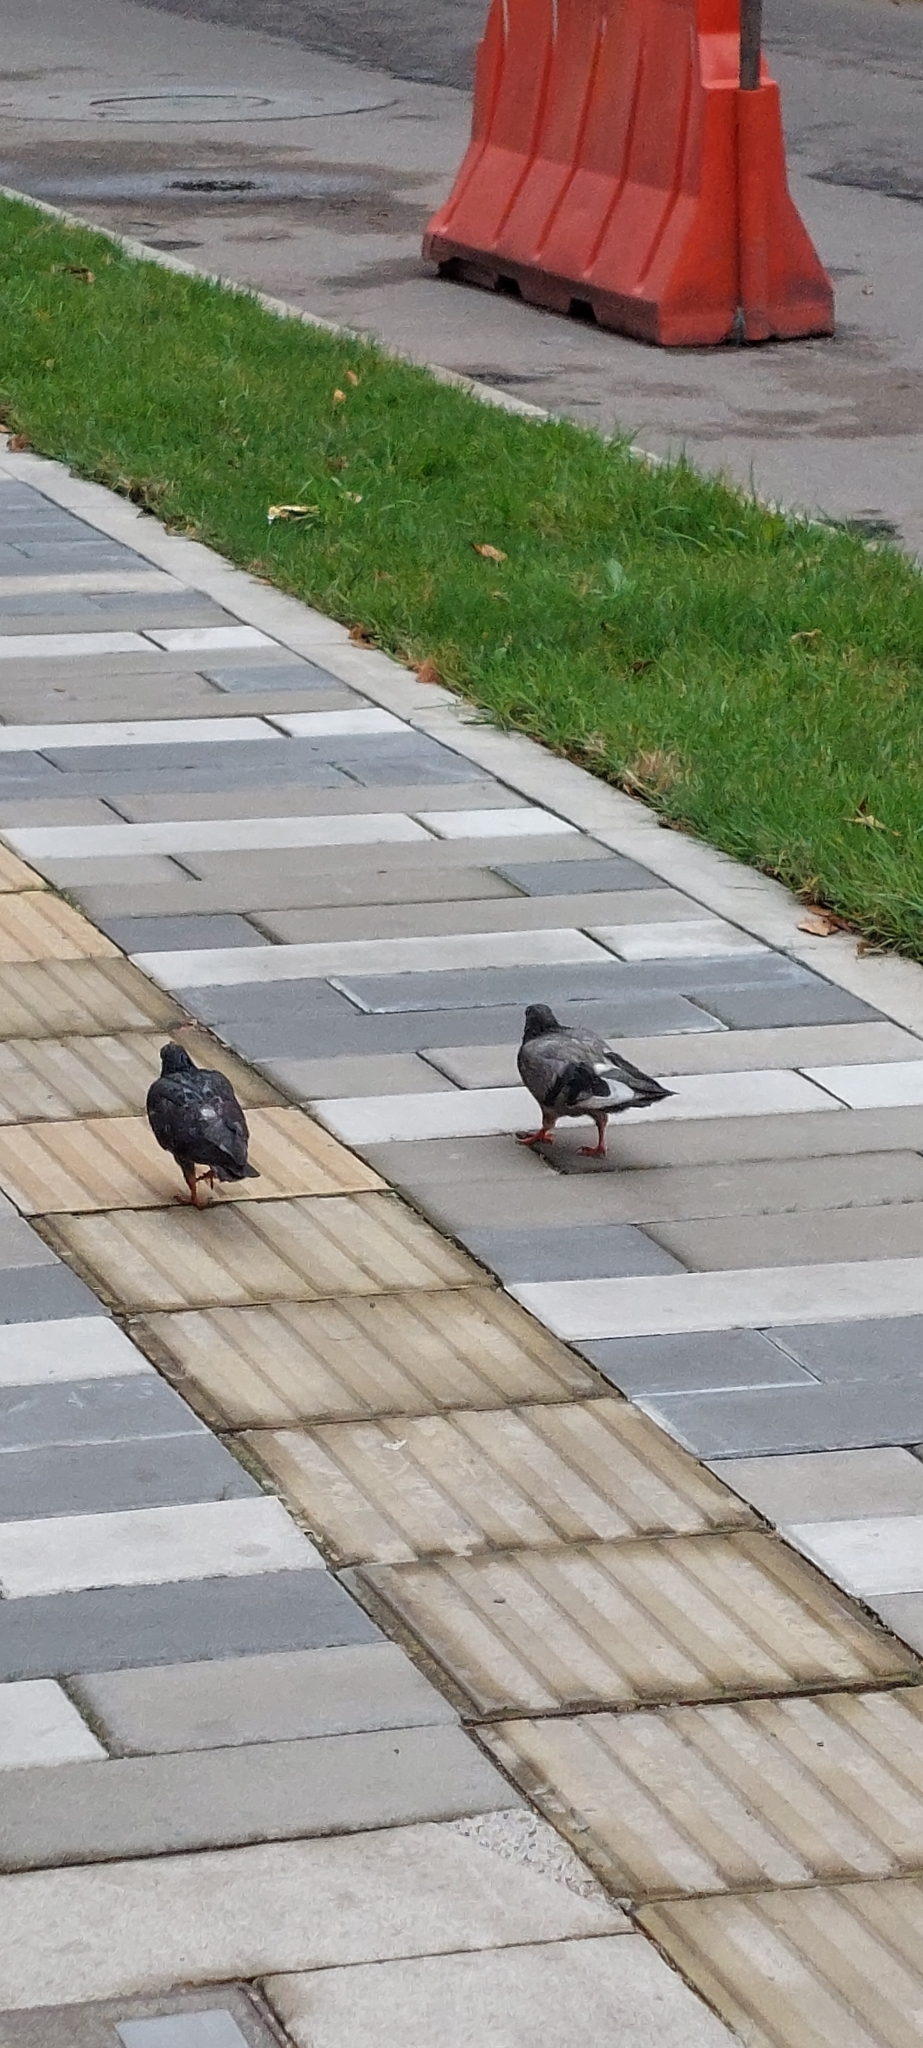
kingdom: Animalia
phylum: Chordata
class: Aves
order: Columbiformes
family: Columbidae
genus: Columba
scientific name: Columba livia
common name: Rock pigeon
